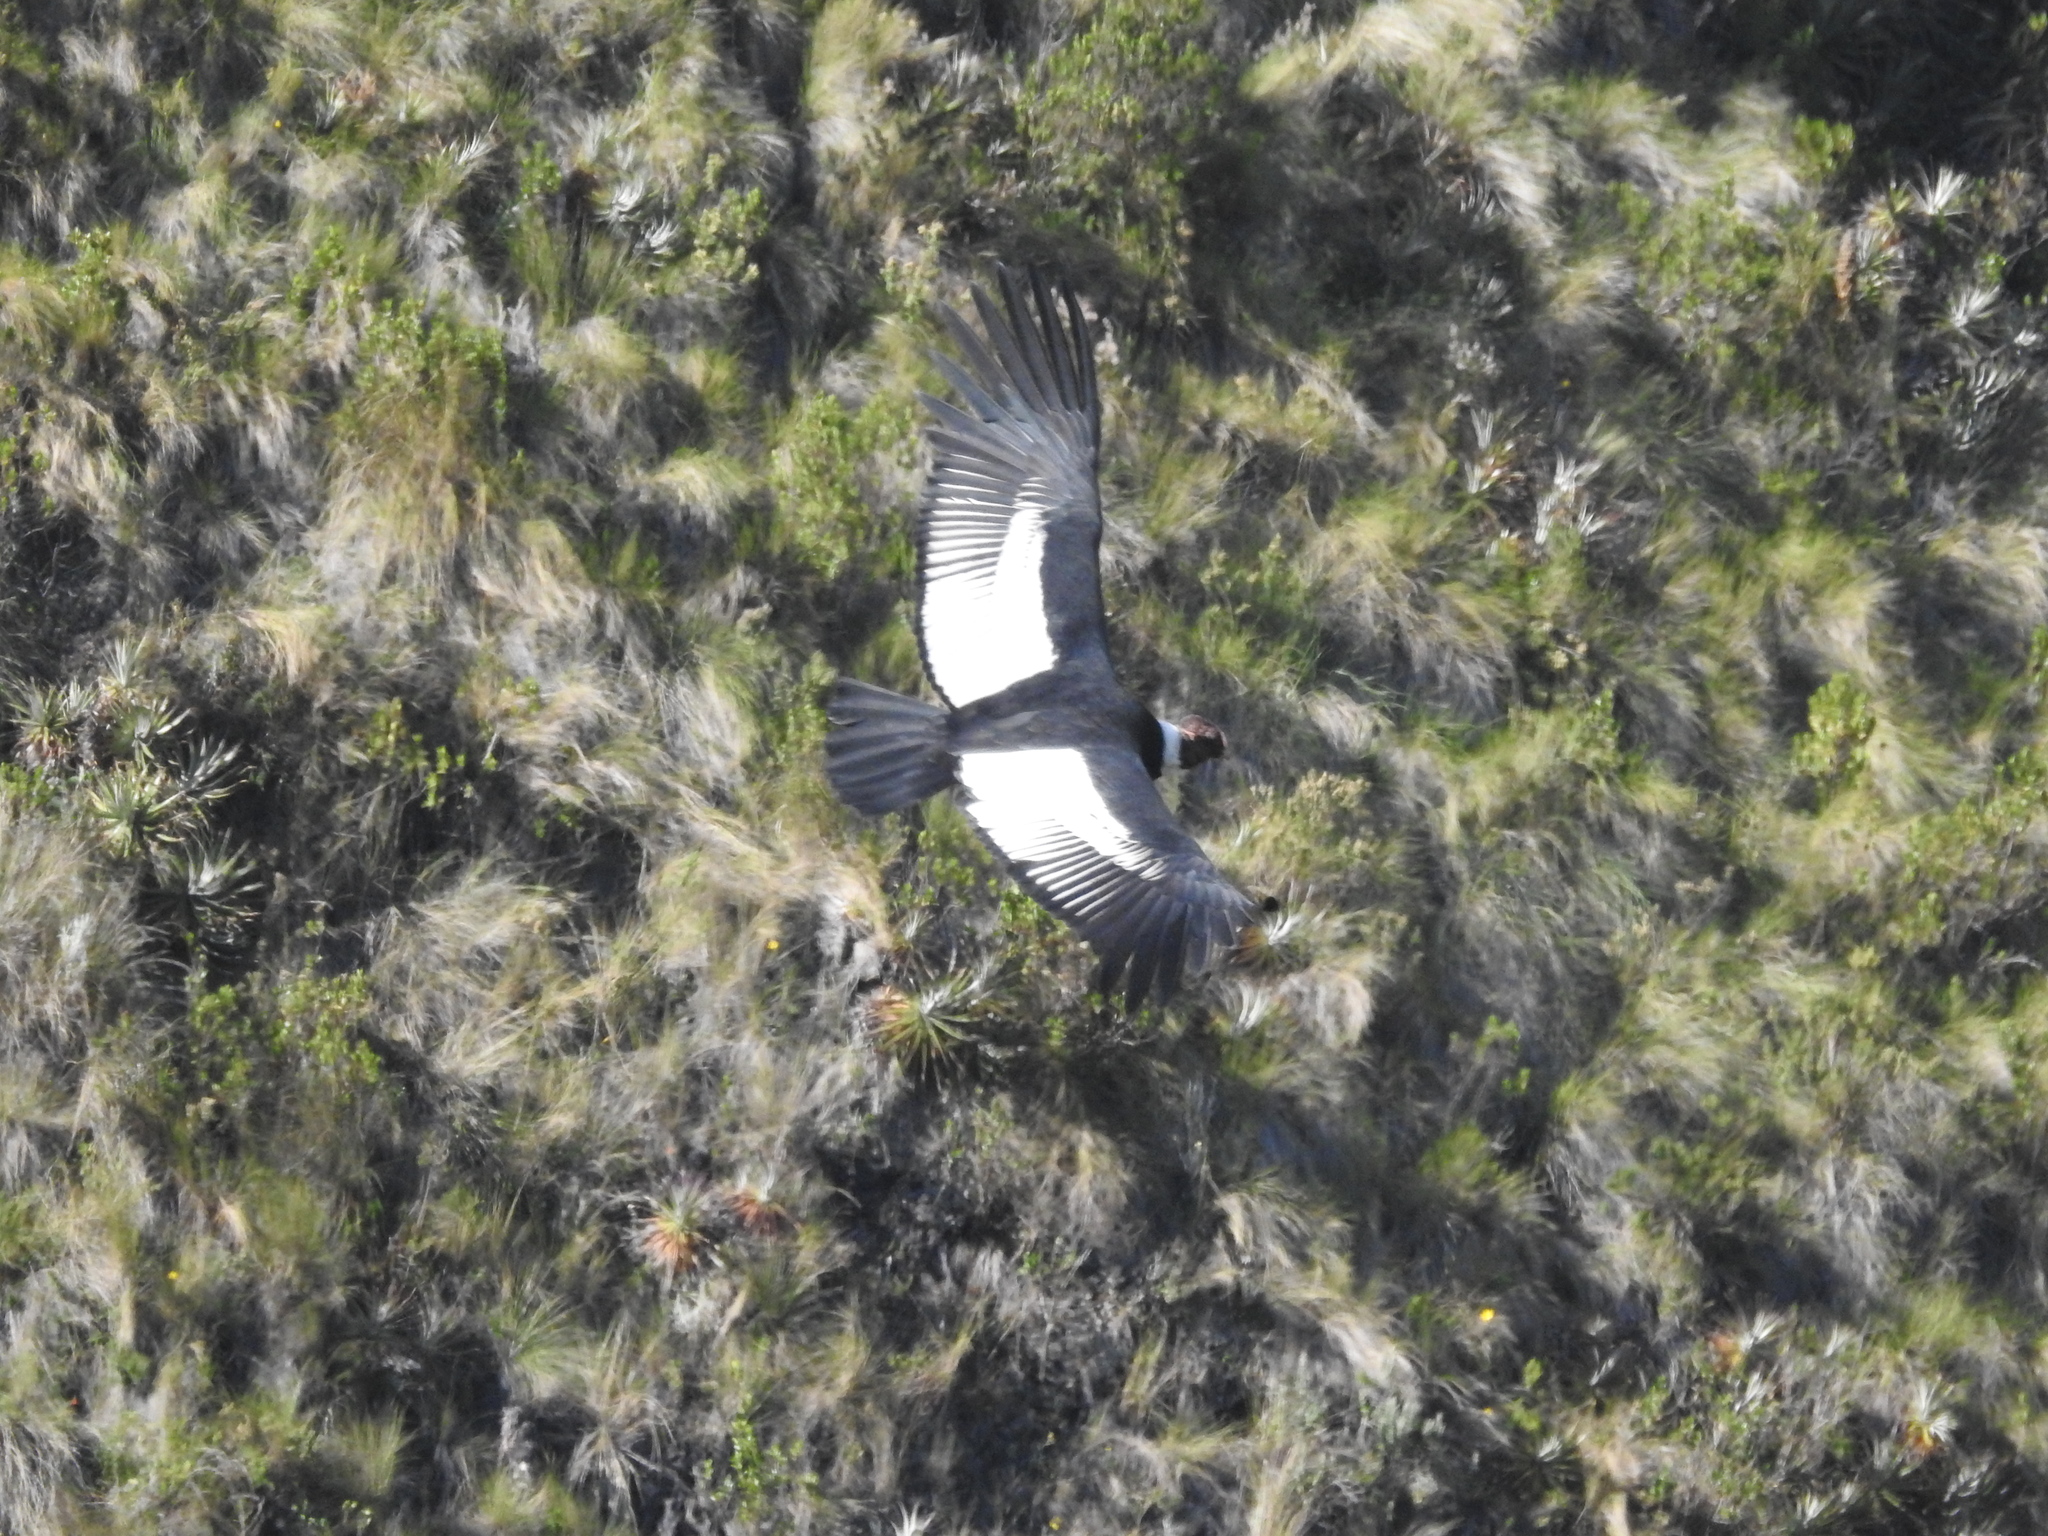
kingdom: Animalia
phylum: Chordata
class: Aves
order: Accipitriformes
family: Cathartidae
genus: Vultur
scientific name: Vultur gryphus
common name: Andean condor
